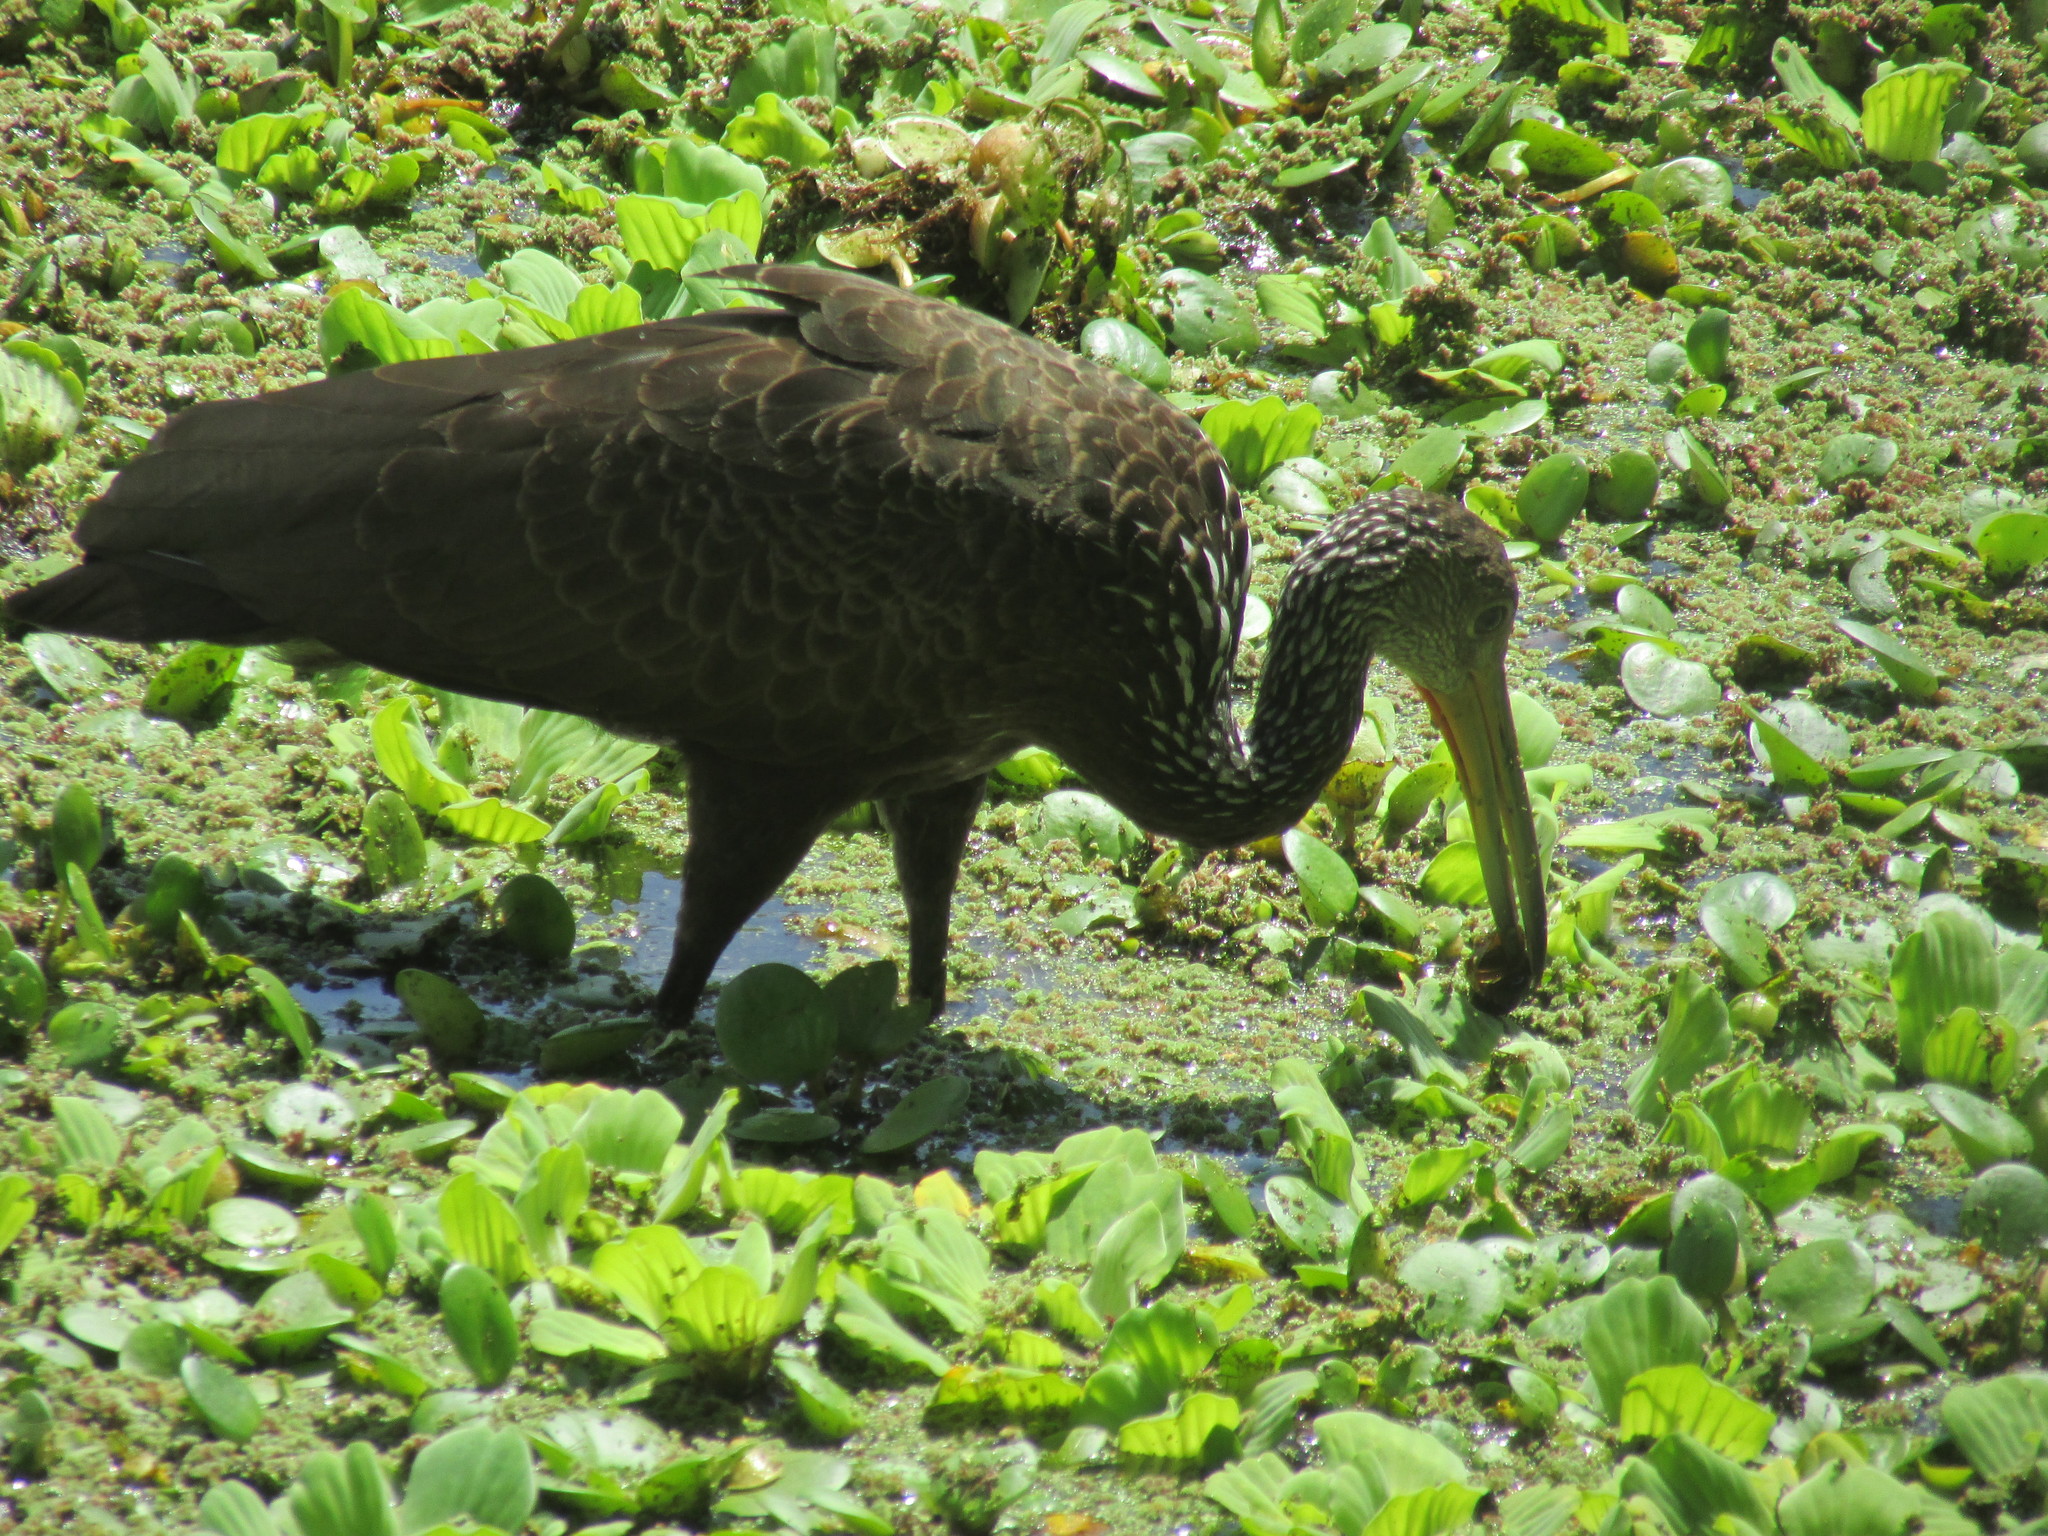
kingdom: Animalia
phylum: Chordata
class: Aves
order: Gruiformes
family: Aramidae
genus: Aramus
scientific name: Aramus guarauna
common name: Limpkin
